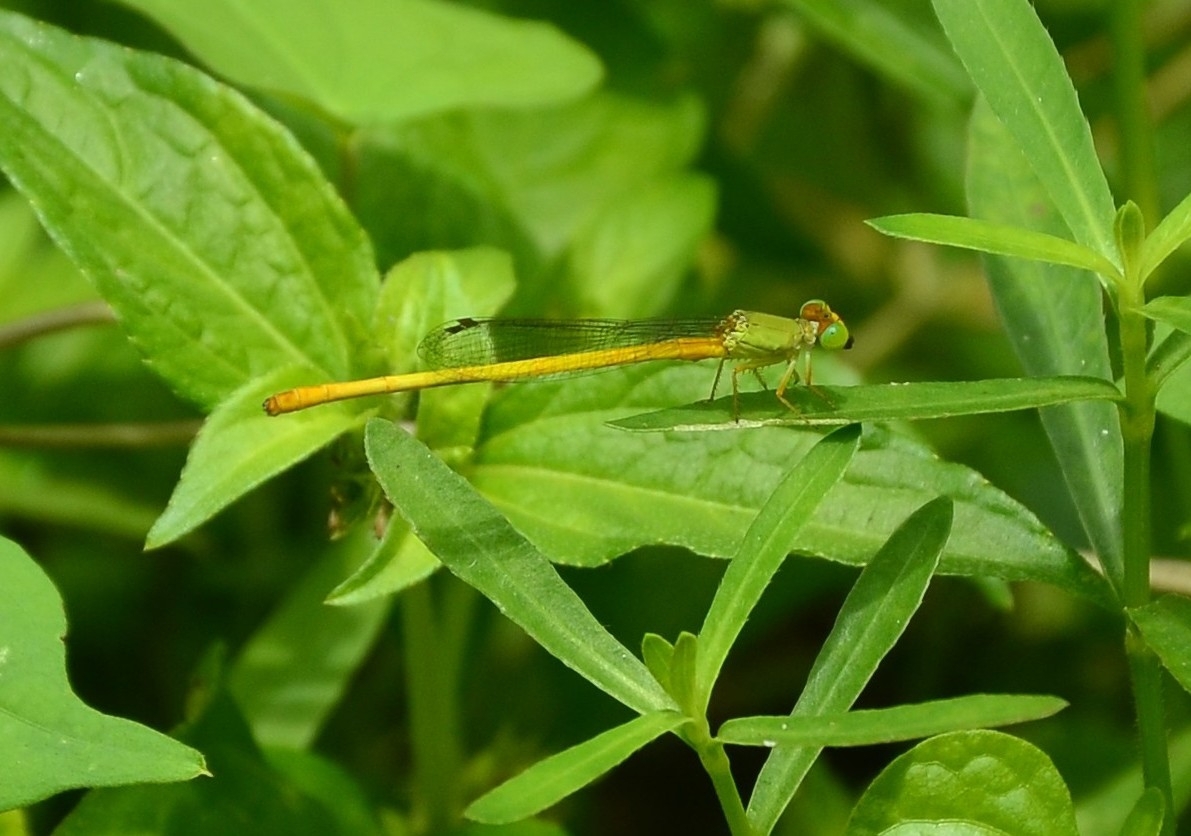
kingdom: Animalia
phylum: Arthropoda
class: Insecta
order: Odonata
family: Coenagrionidae
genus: Ceriagrion
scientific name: Ceriagrion coromandelianum
